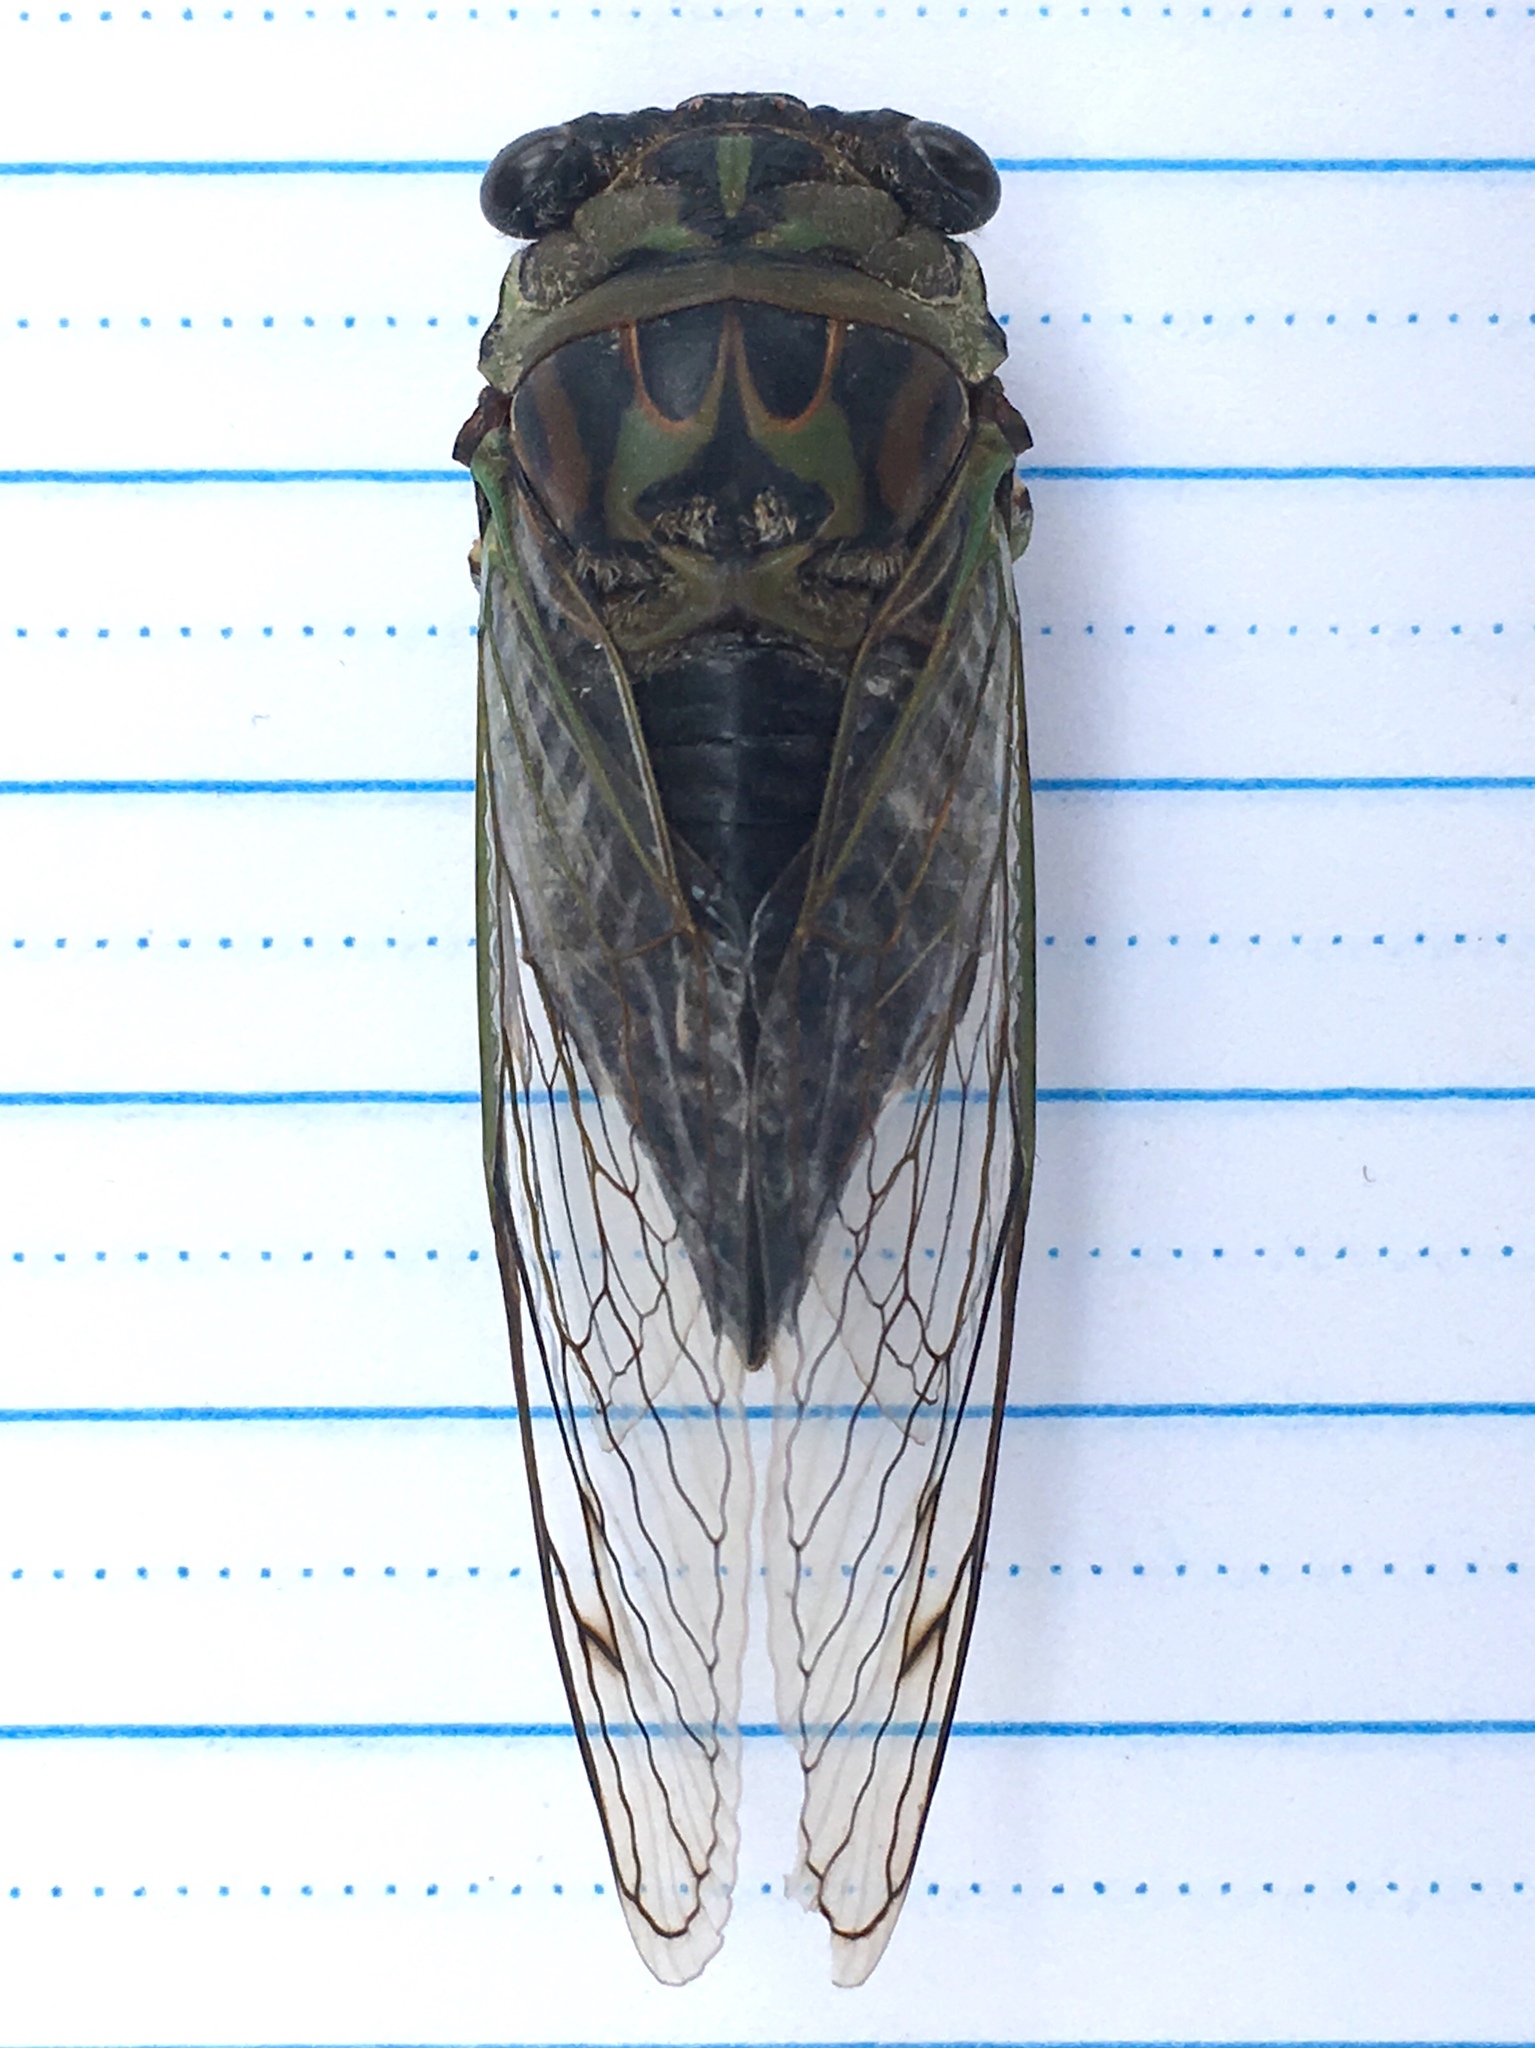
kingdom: Animalia
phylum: Arthropoda
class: Insecta
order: Hemiptera
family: Cicadidae
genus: Neotibicen
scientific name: Neotibicen canicularis
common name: God-day cicada
